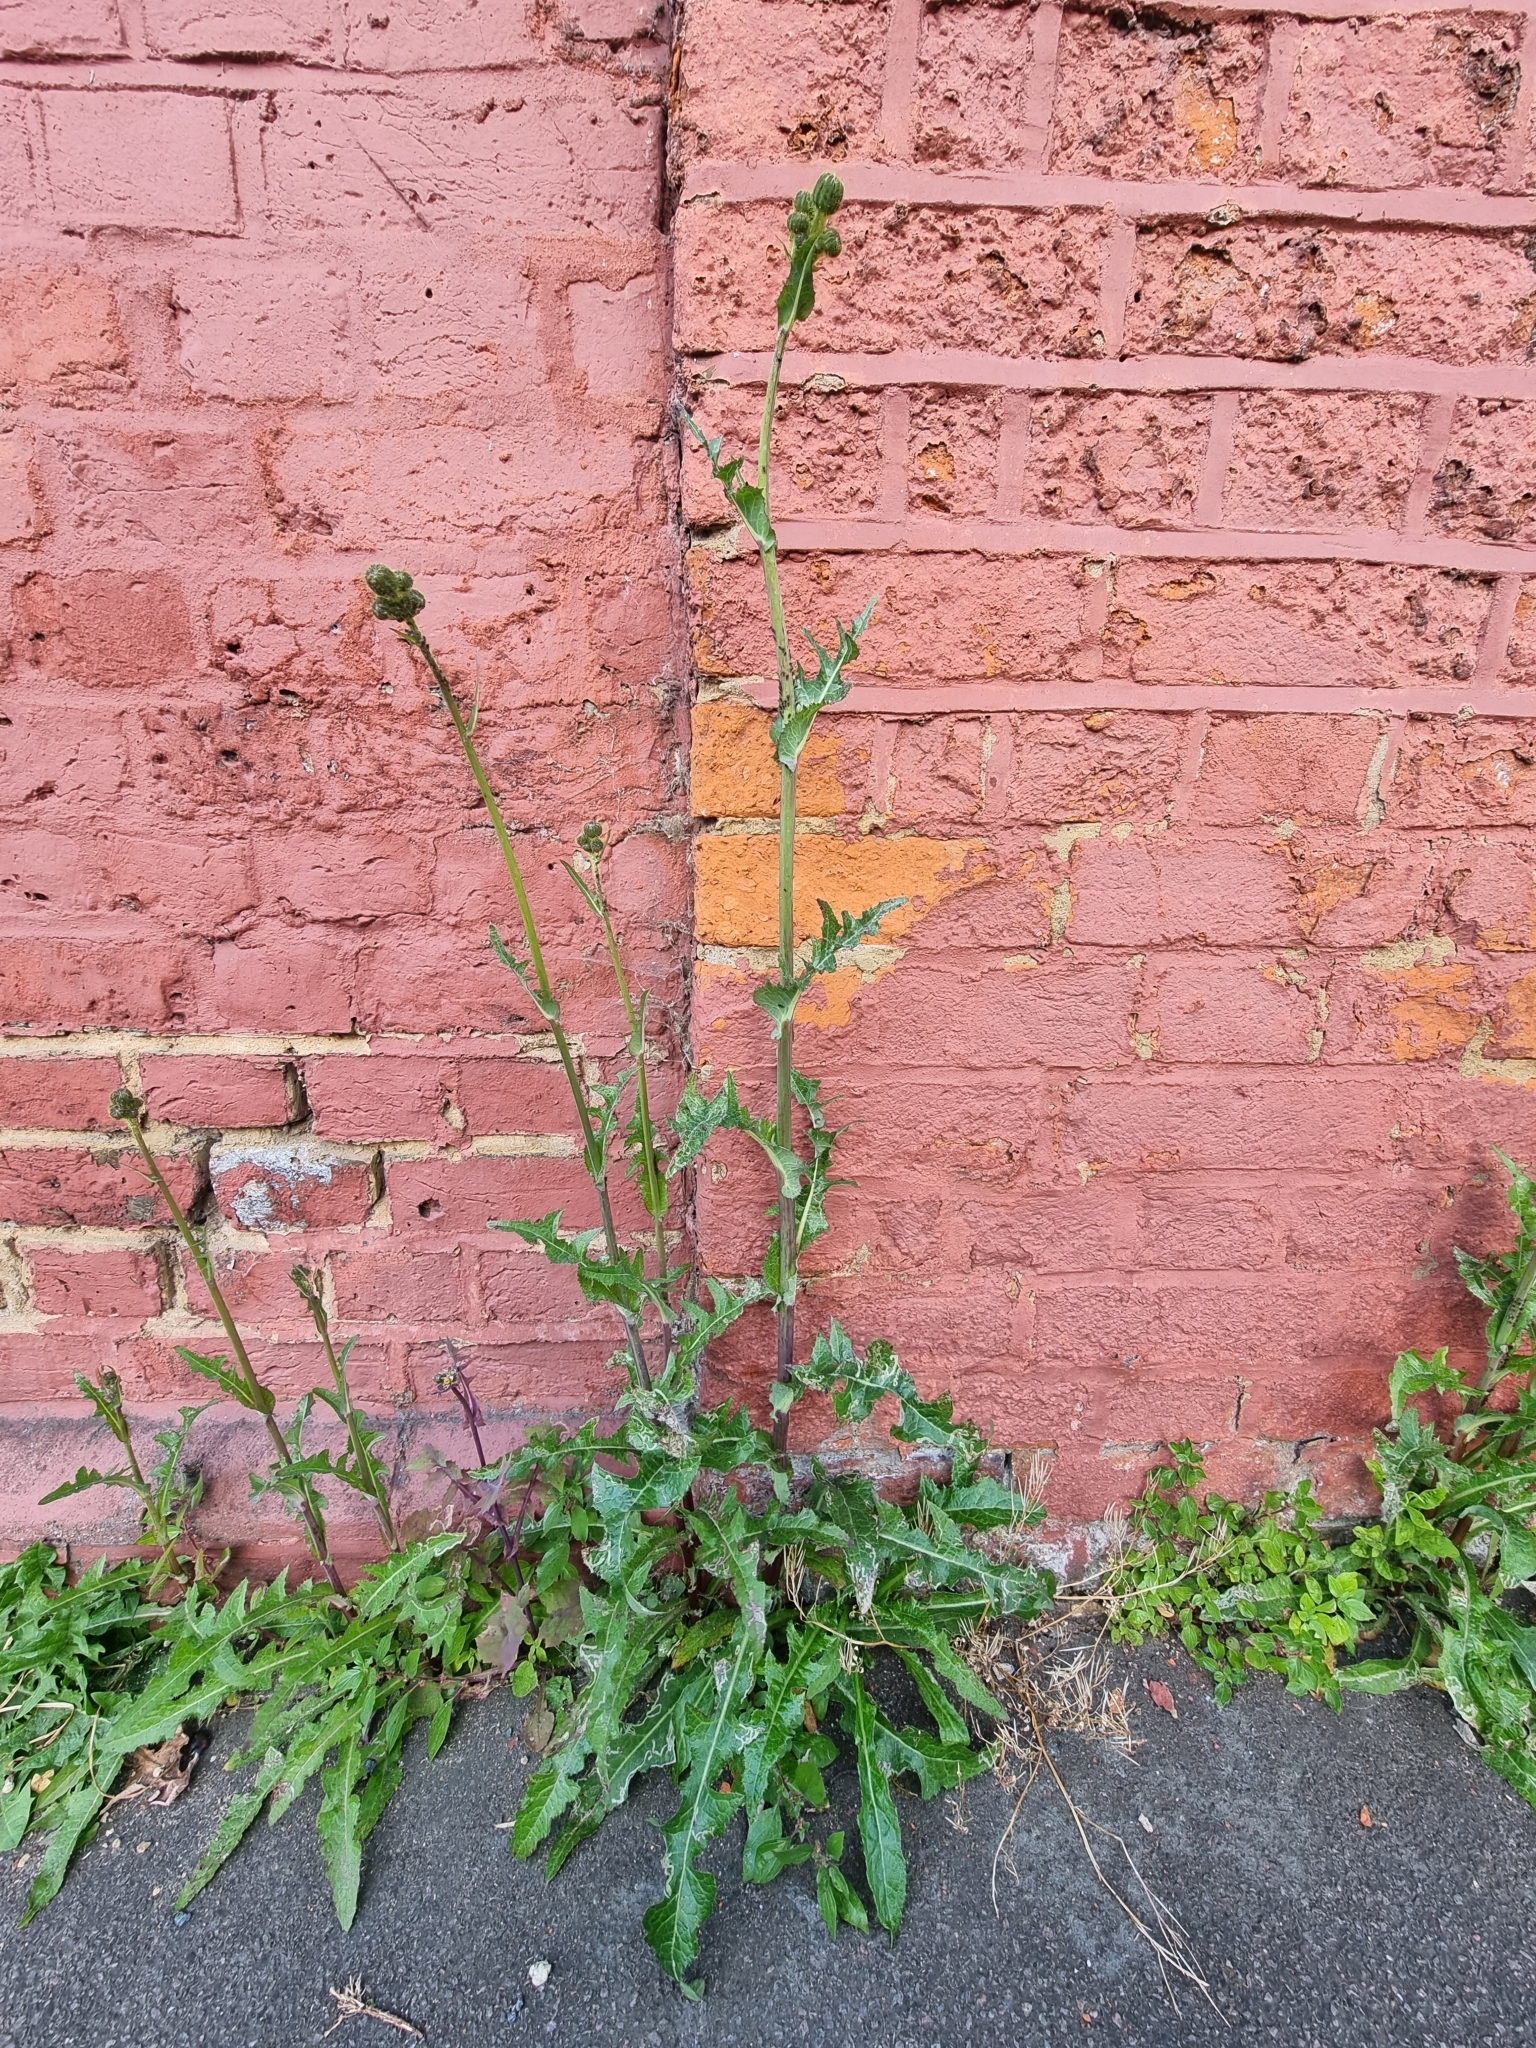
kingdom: Plantae
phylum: Tracheophyta
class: Magnoliopsida
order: Asterales
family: Asteraceae
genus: Sonchus
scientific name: Sonchus arvensis
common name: Perennial sow-thistle
